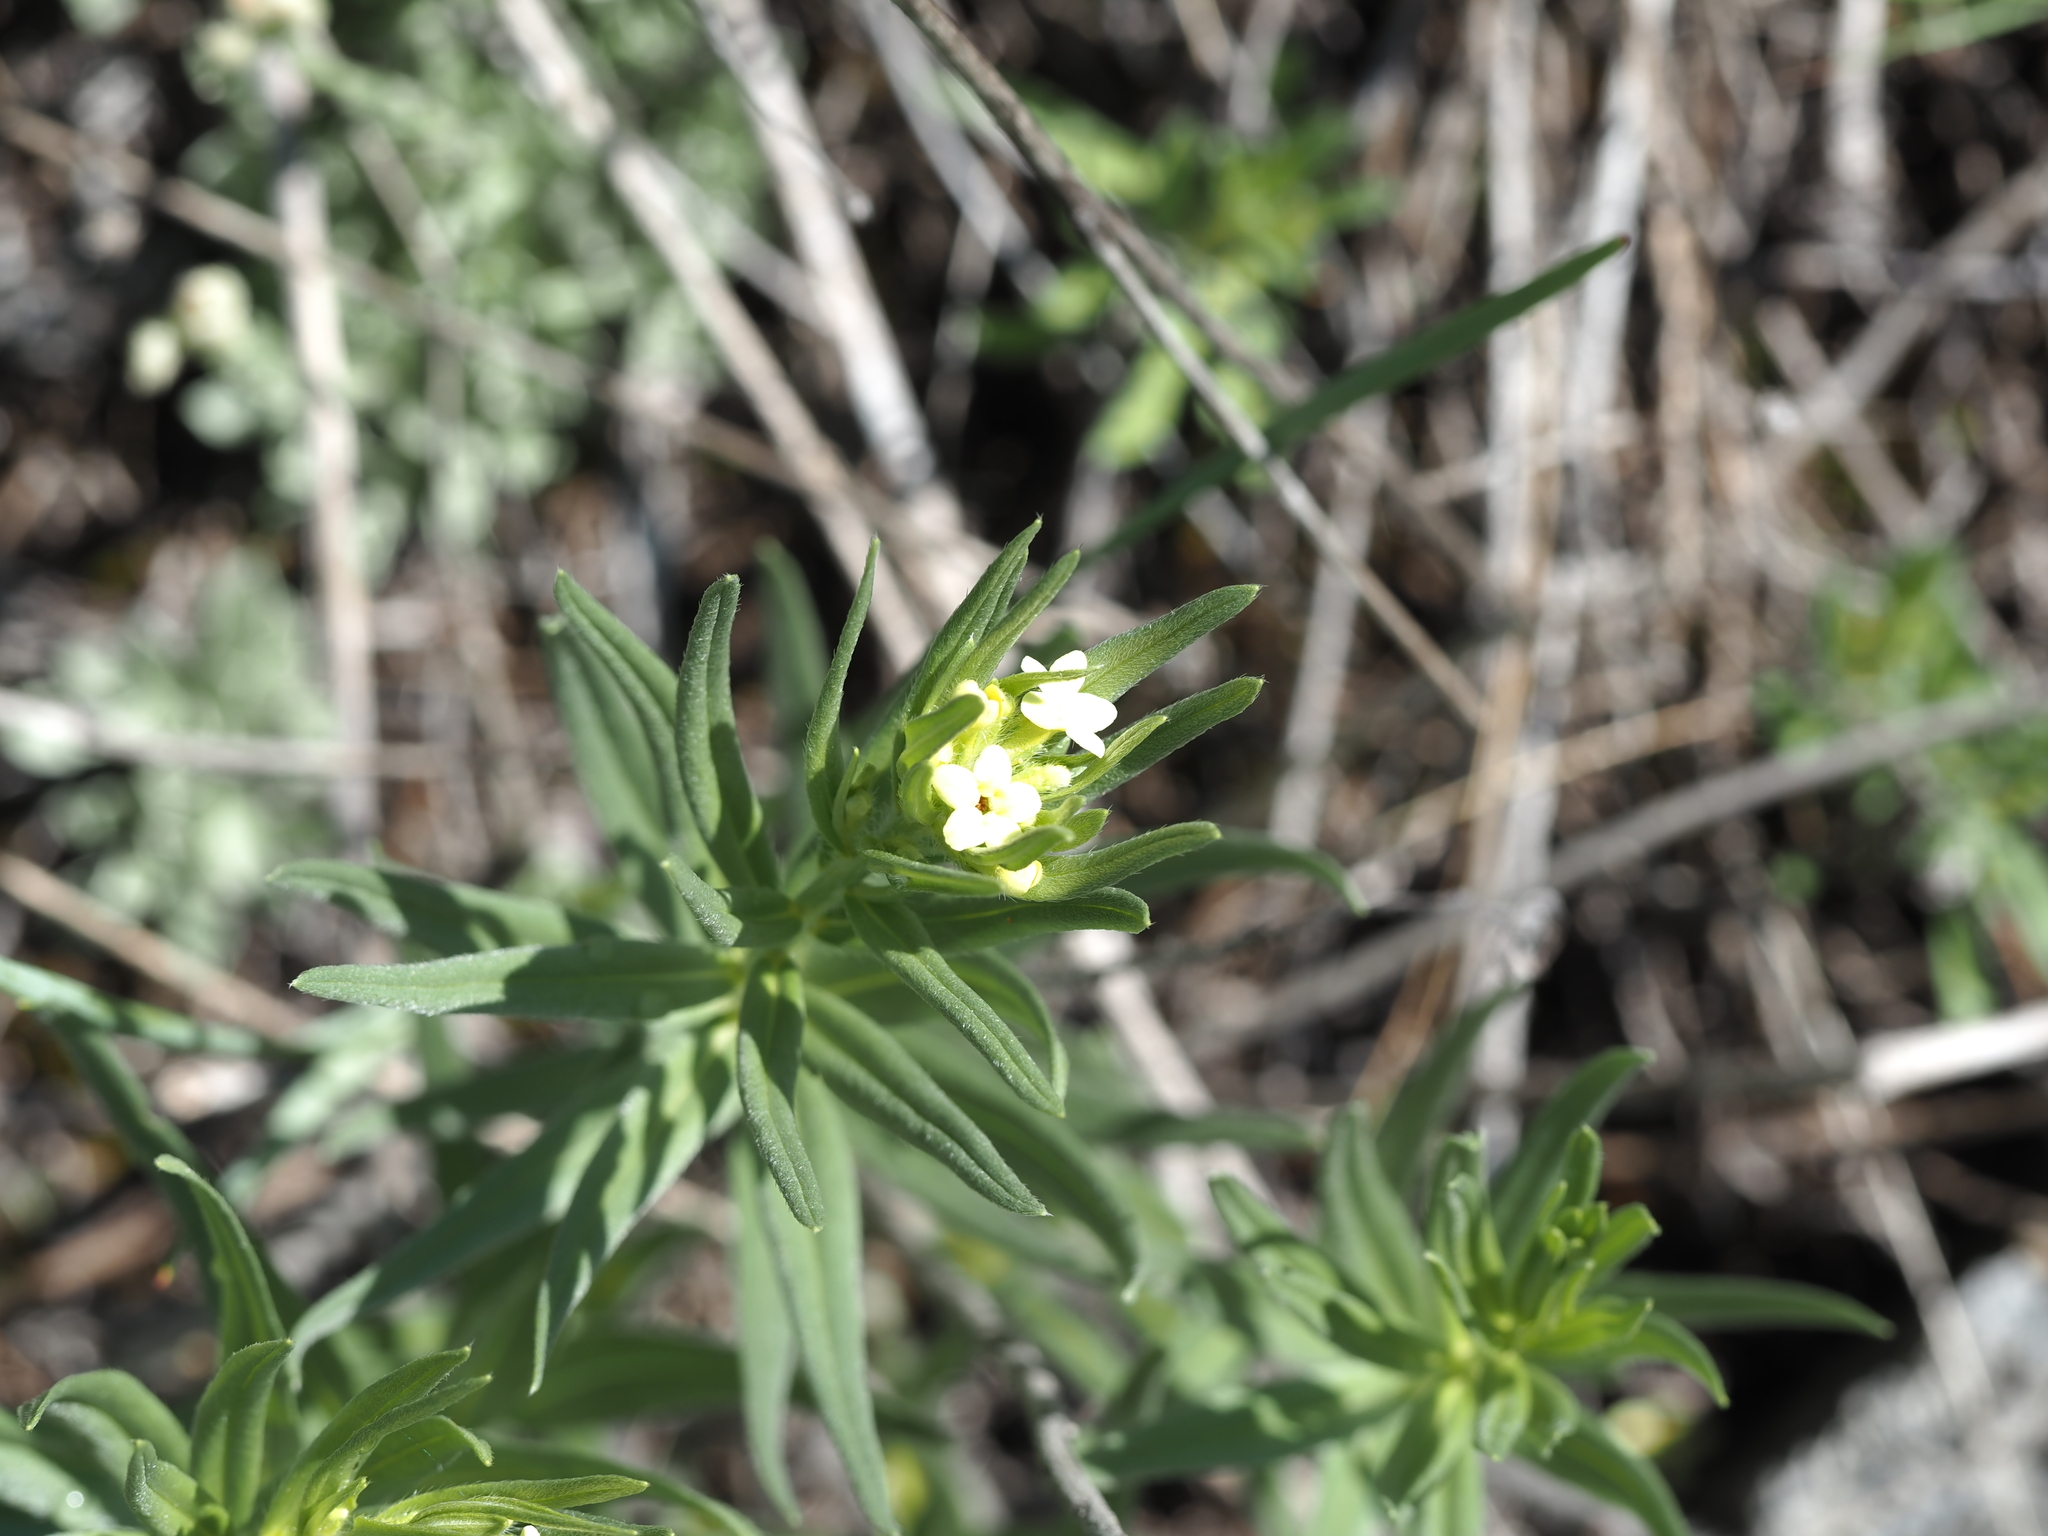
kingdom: Plantae
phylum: Tracheophyta
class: Magnoliopsida
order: Boraginales
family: Boraginaceae
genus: Lithospermum
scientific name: Lithospermum ruderale
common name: Western gromwell
